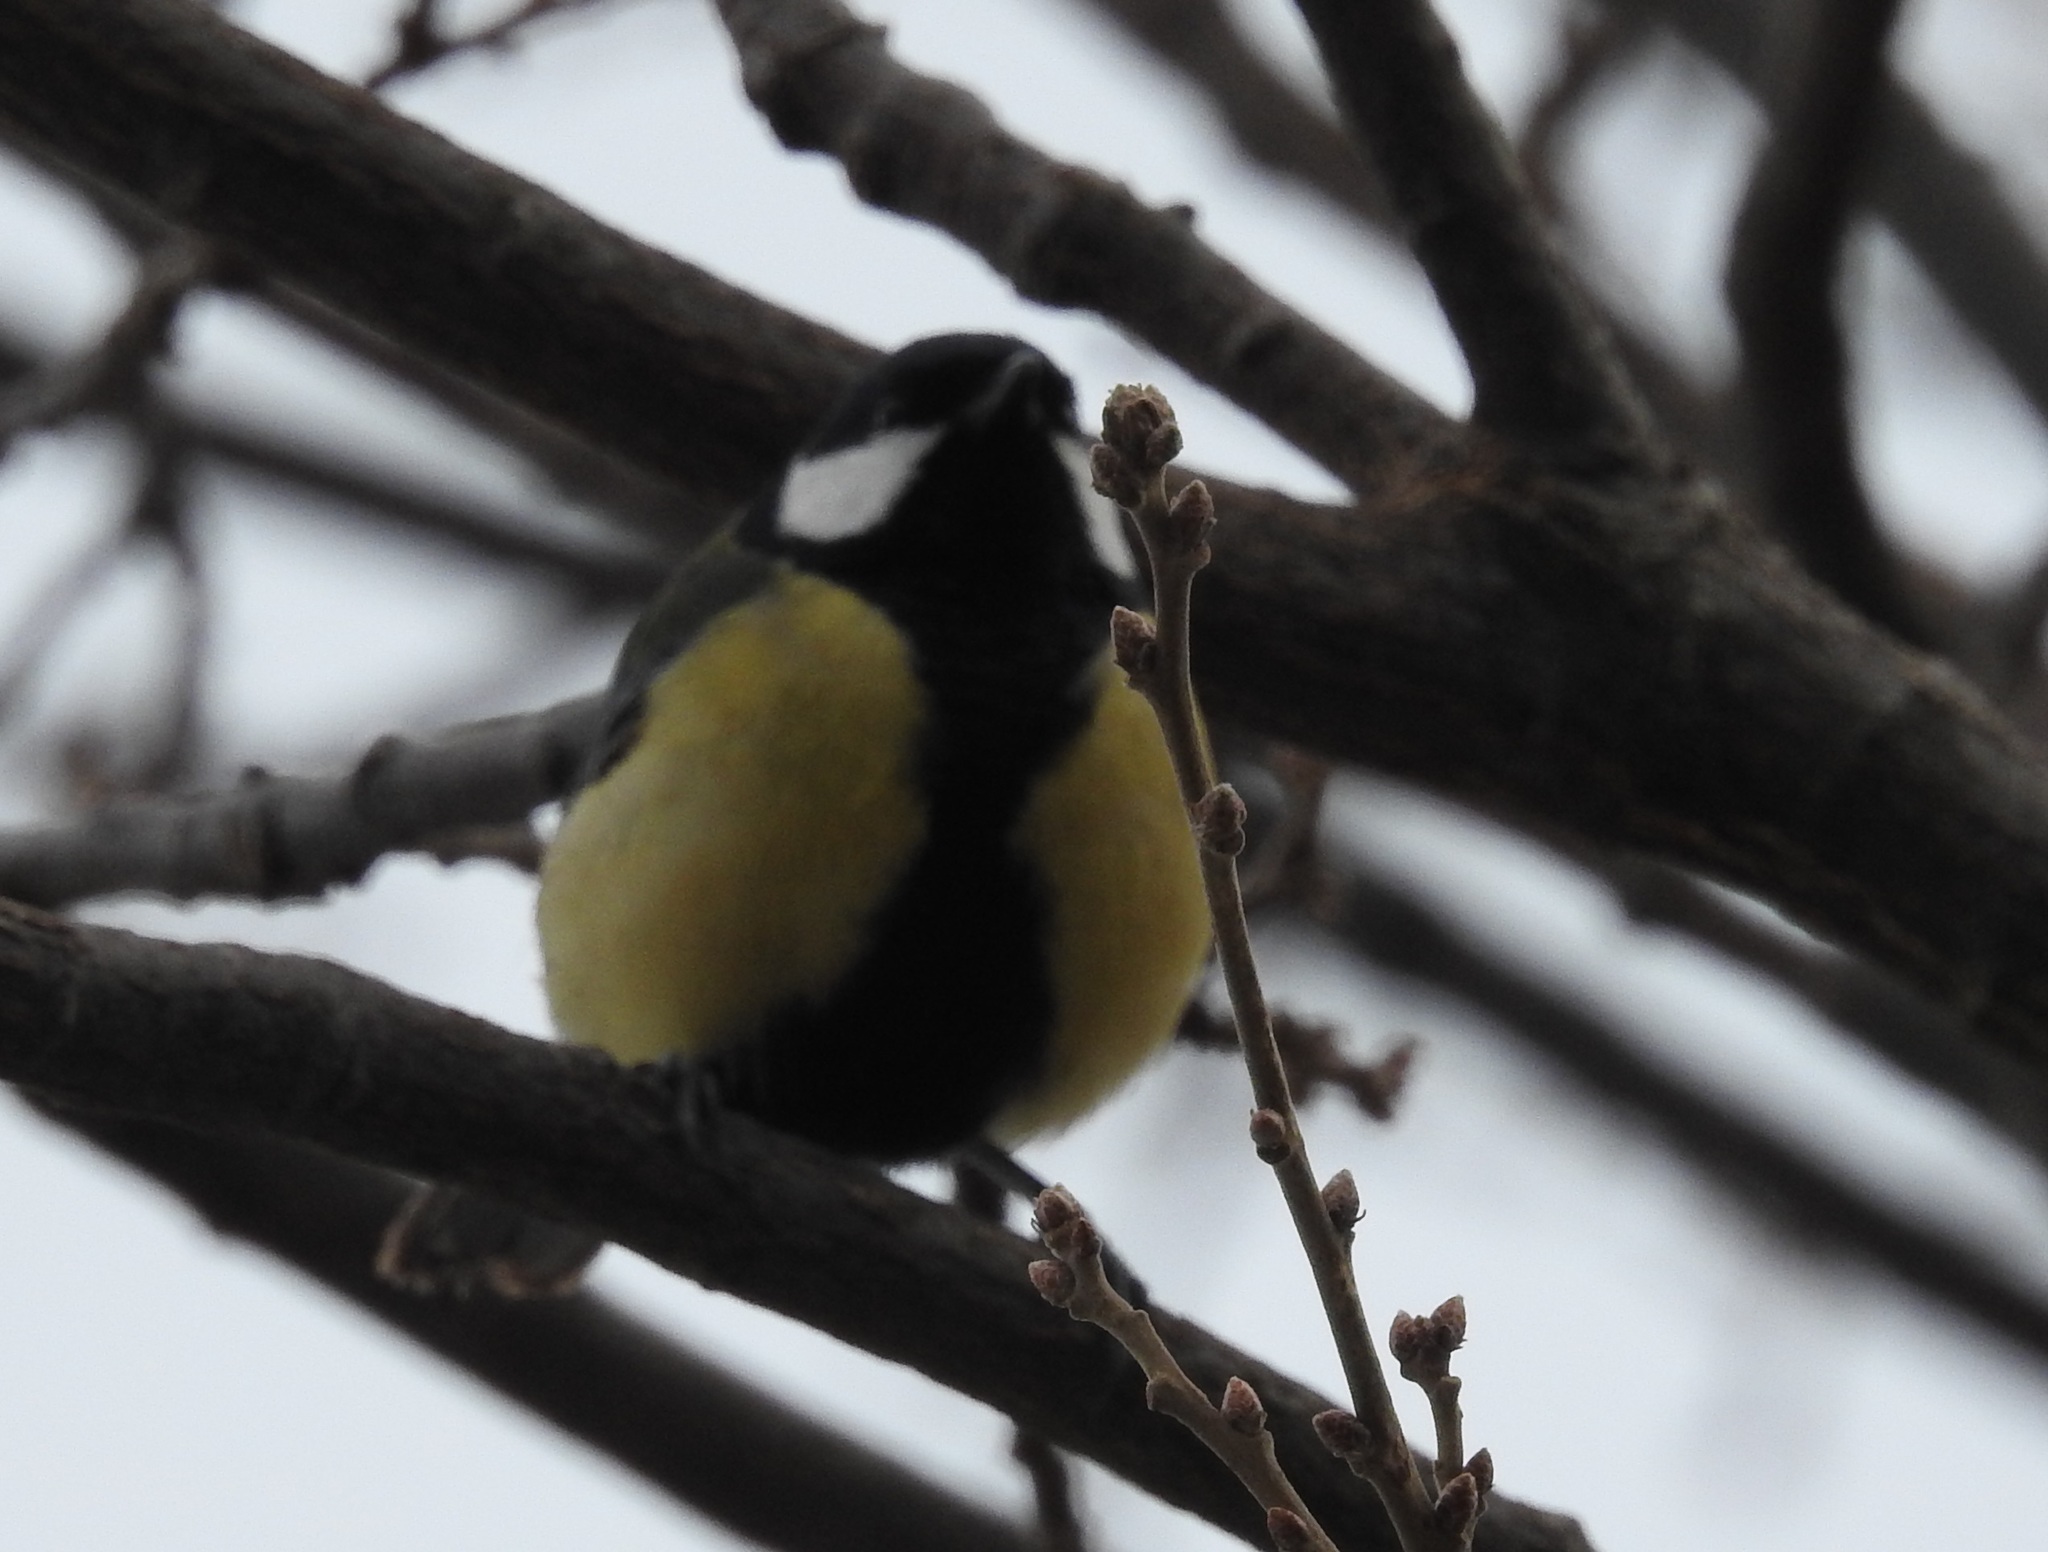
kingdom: Animalia
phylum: Chordata
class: Aves
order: Passeriformes
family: Paridae
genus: Parus
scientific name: Parus major
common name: Great tit
